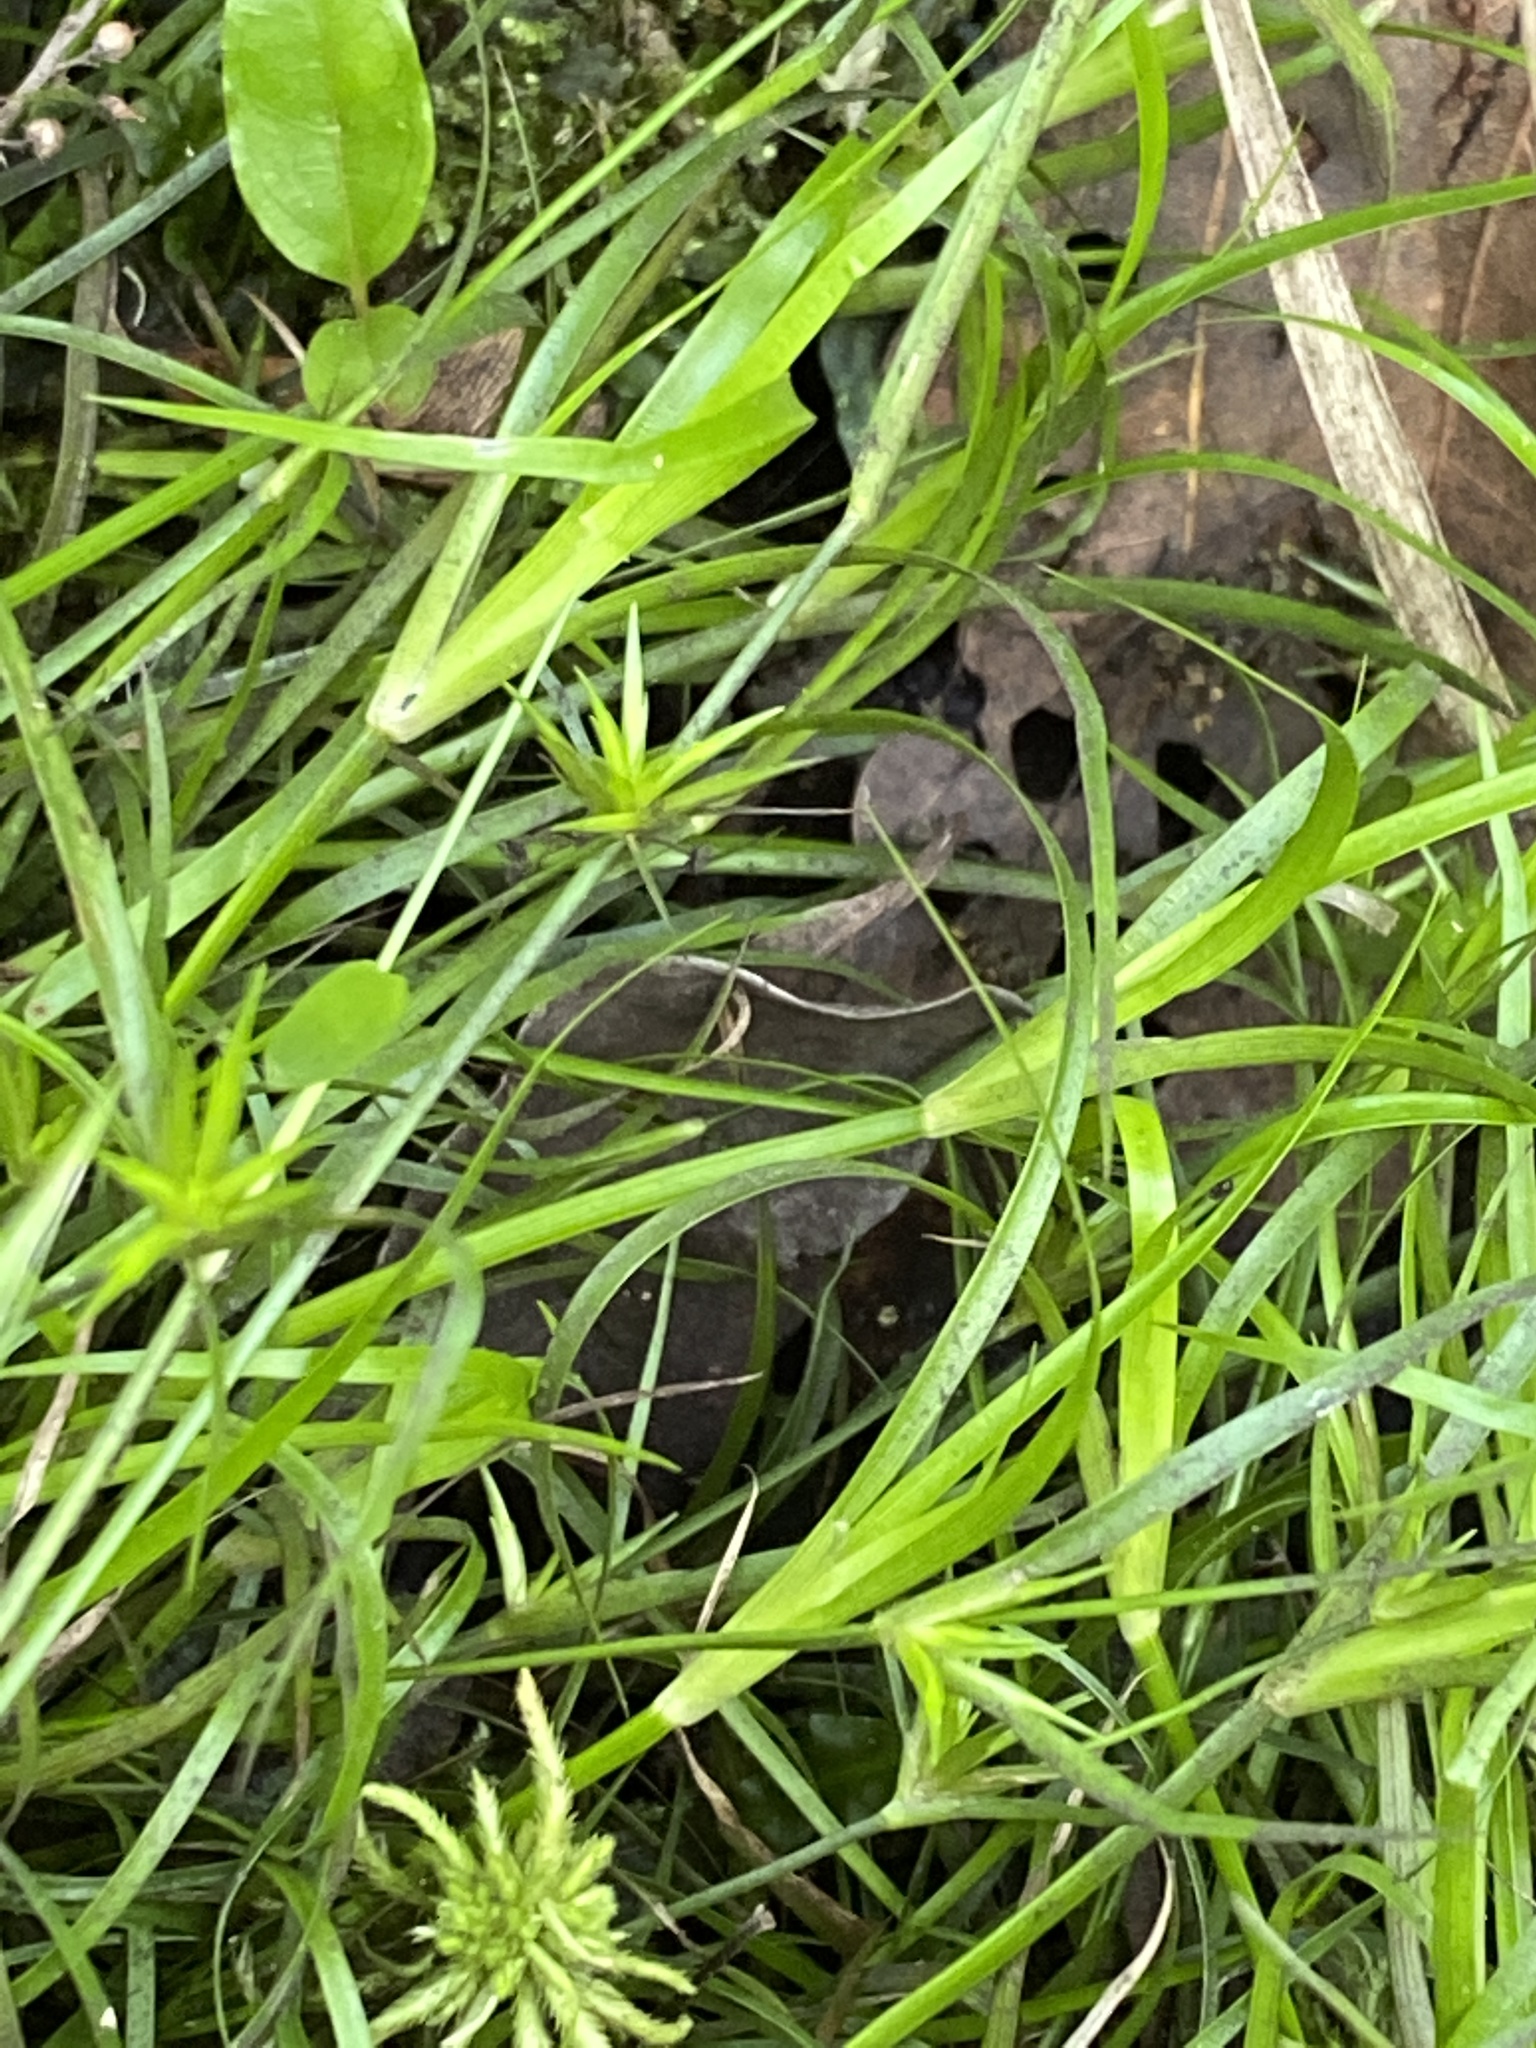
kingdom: Plantae
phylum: Tracheophyta
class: Liliopsida
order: Poales
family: Juncaceae
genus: Juncus
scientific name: Juncus repens
